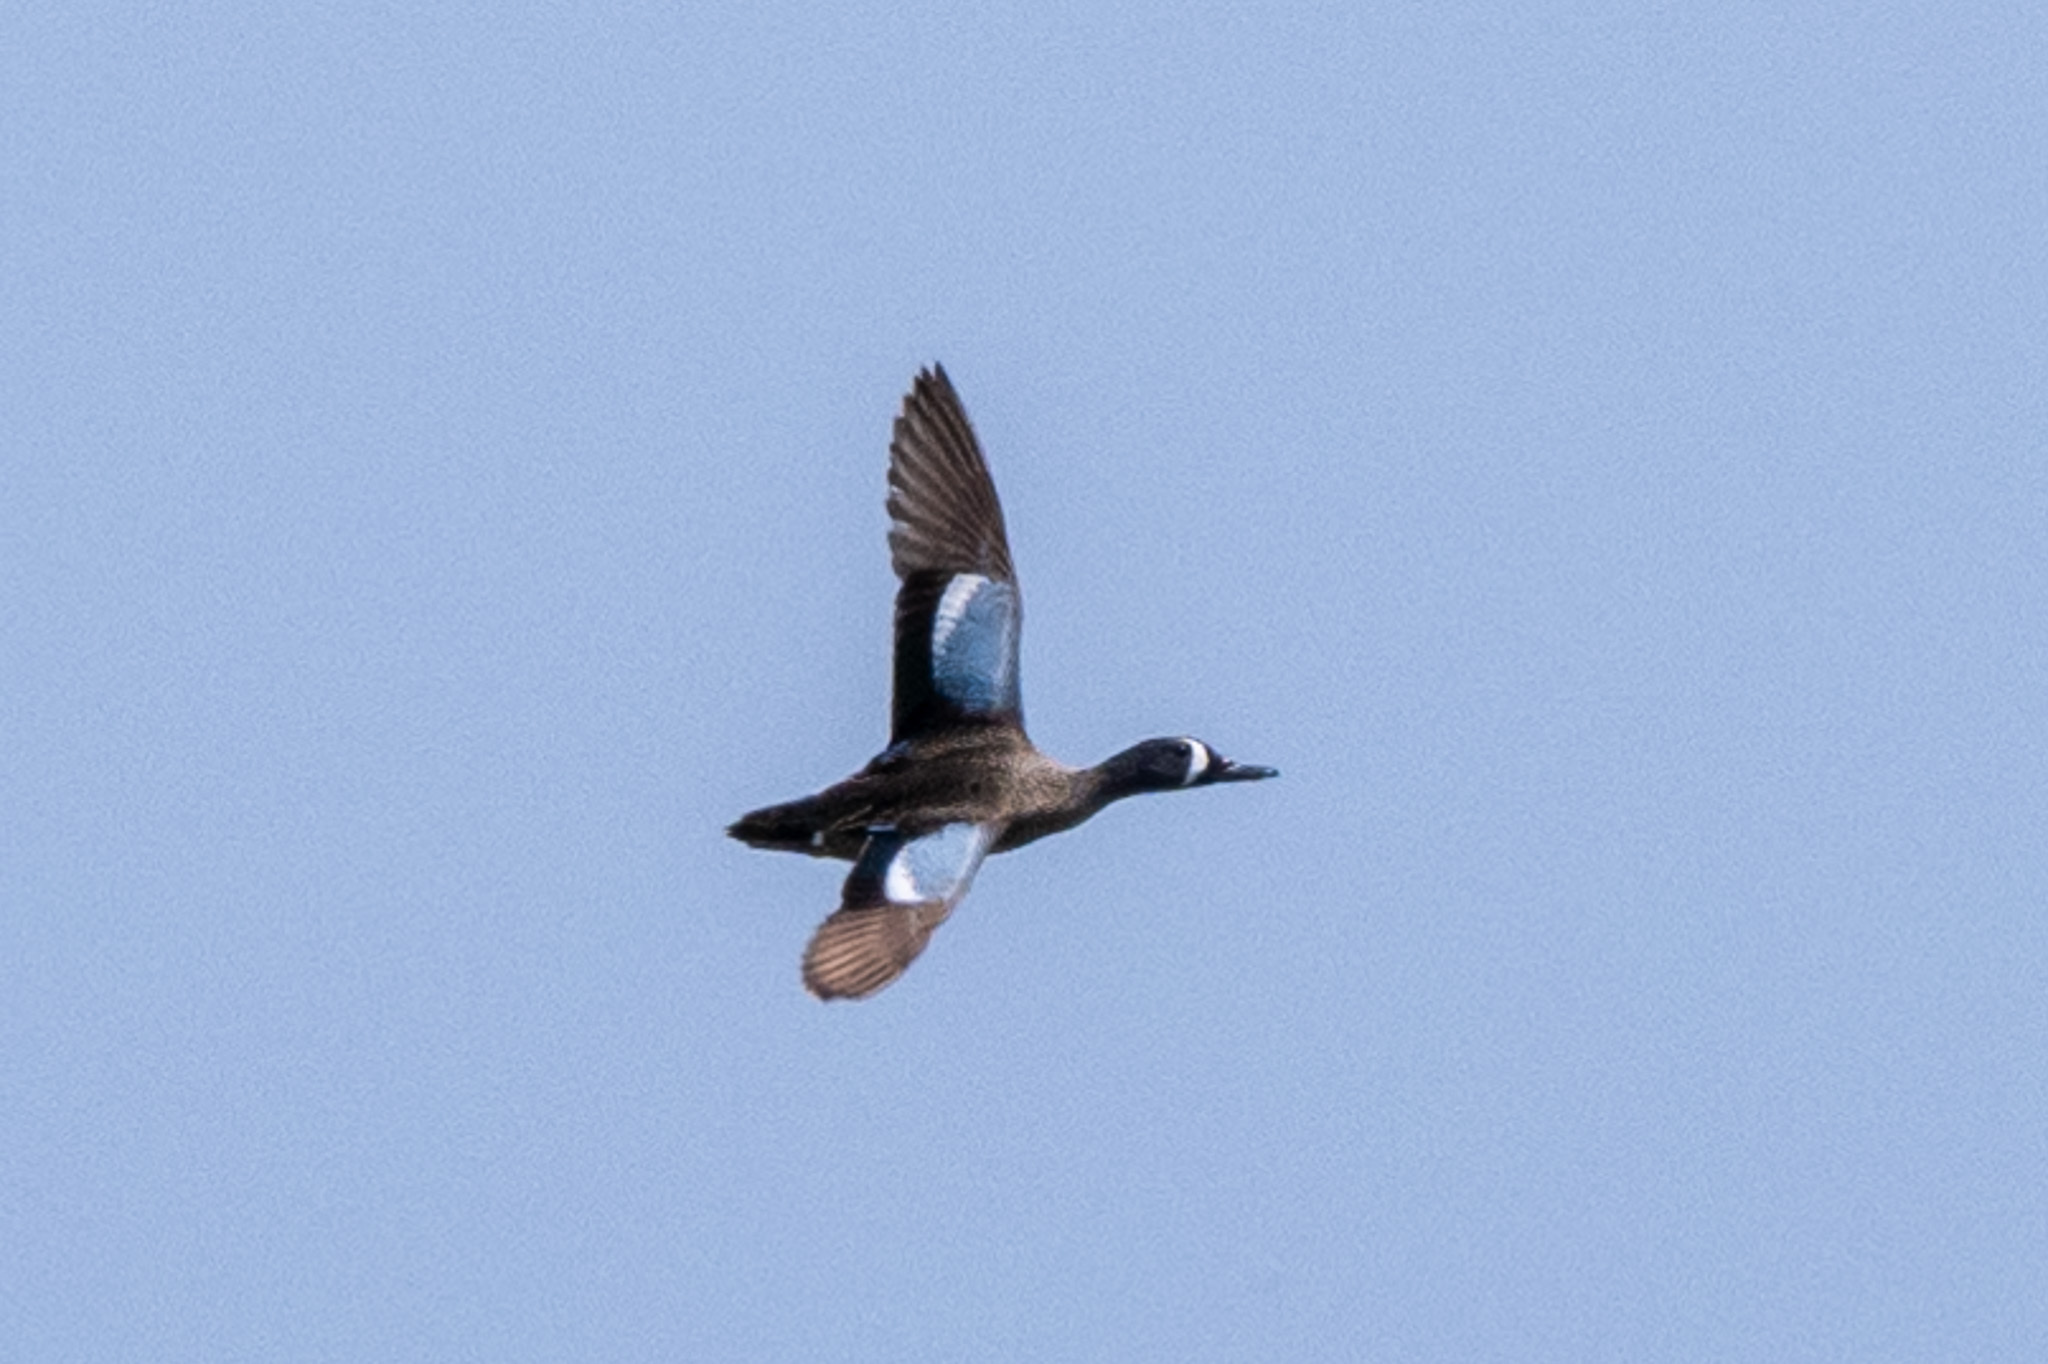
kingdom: Animalia
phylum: Chordata
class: Aves
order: Anseriformes
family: Anatidae
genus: Spatula
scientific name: Spatula discors
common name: Blue-winged teal
